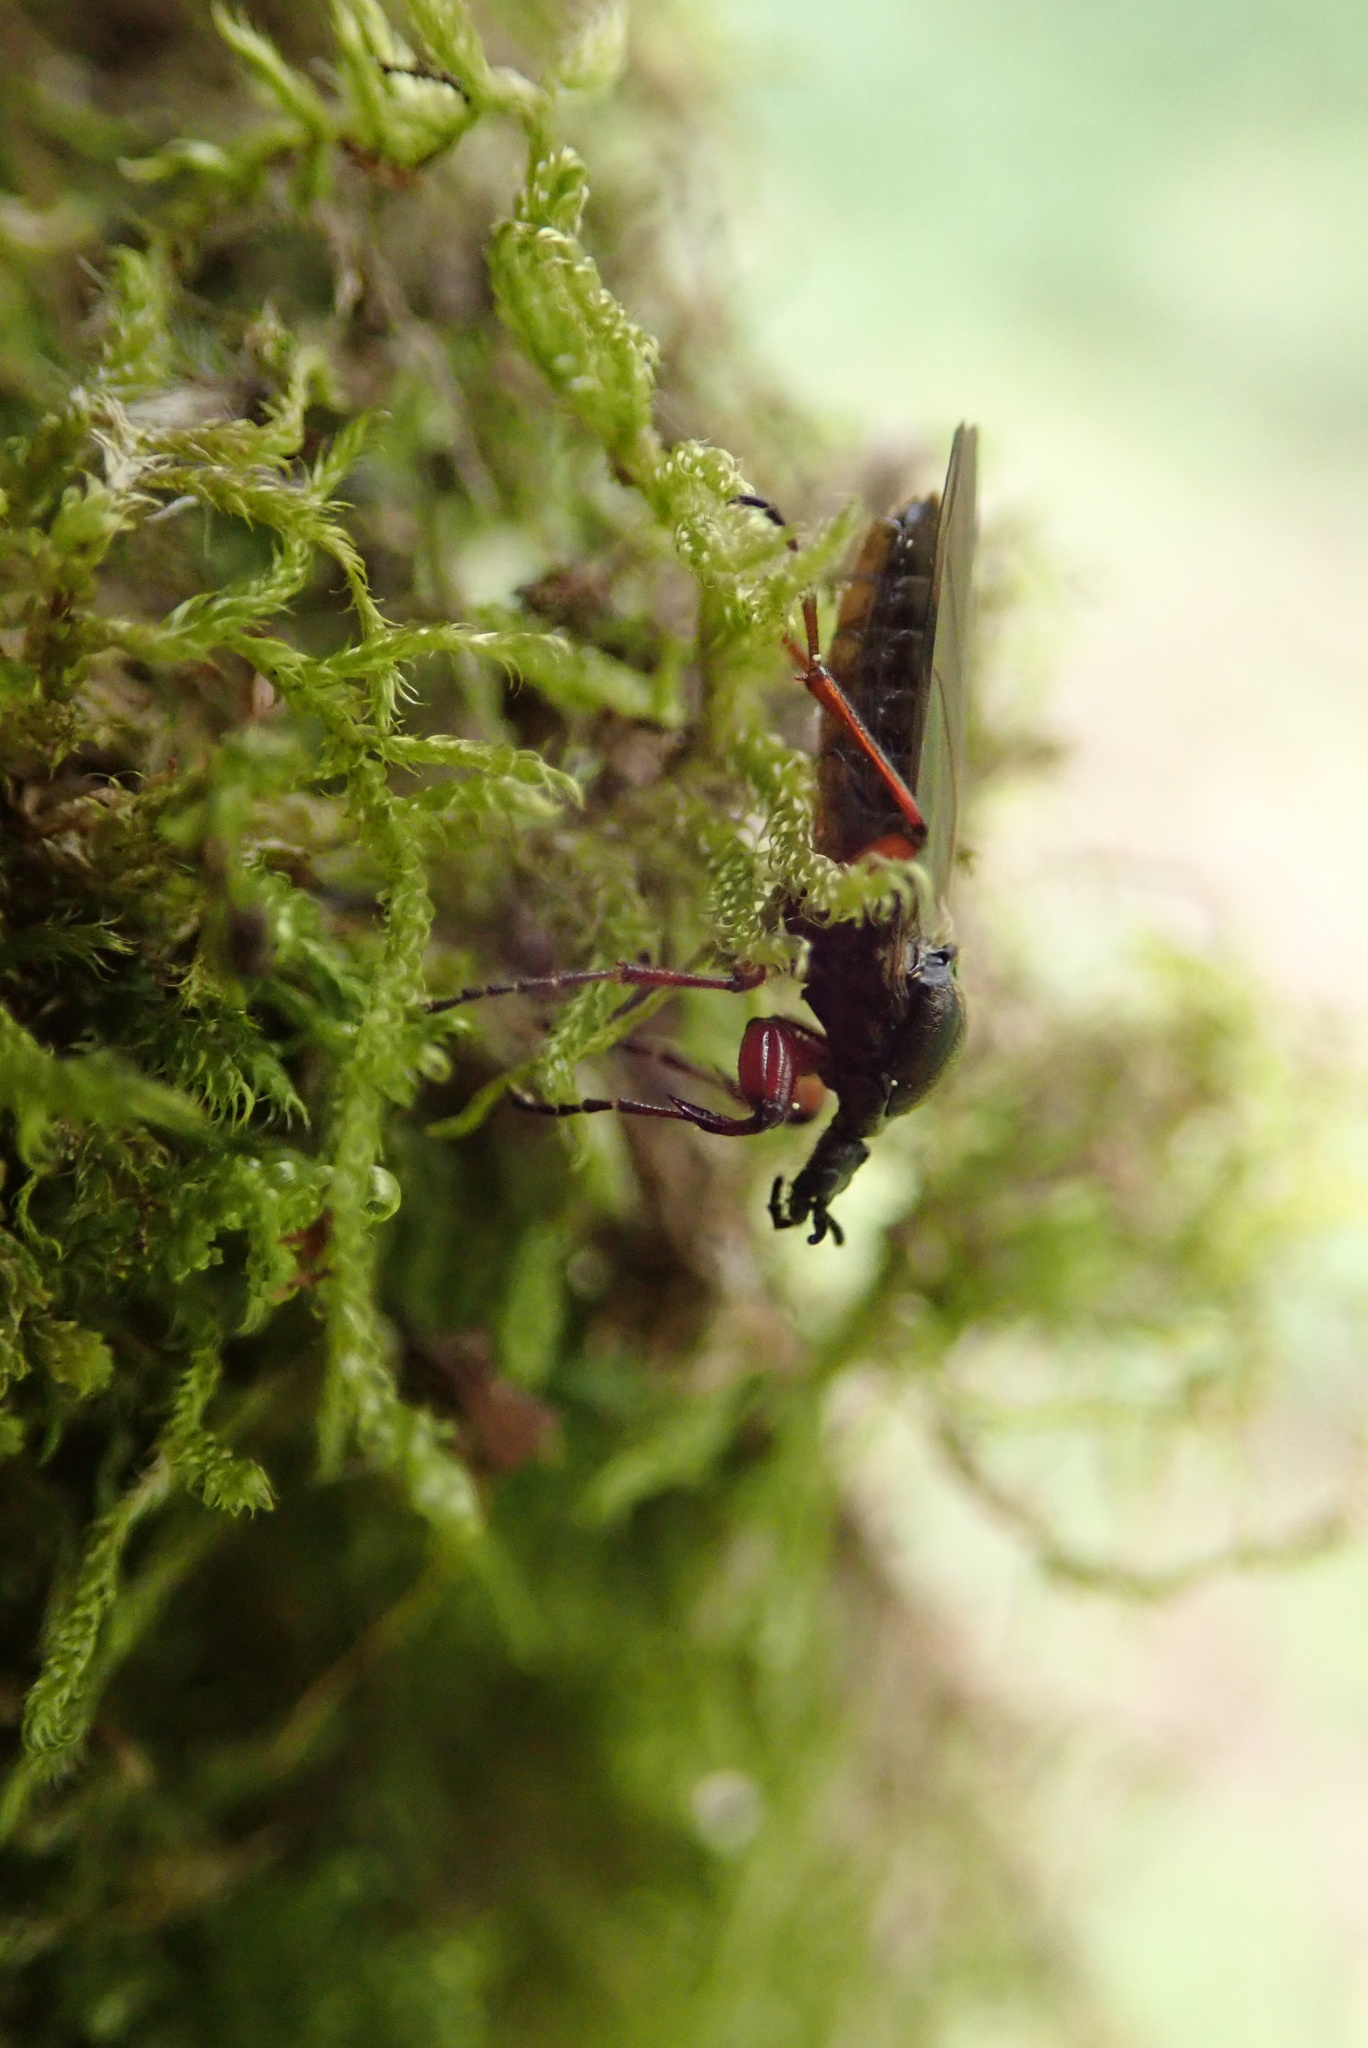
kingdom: Animalia
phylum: Arthropoda
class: Insecta
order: Diptera
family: Bibionidae
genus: Bibio
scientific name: Bibio pomonae
